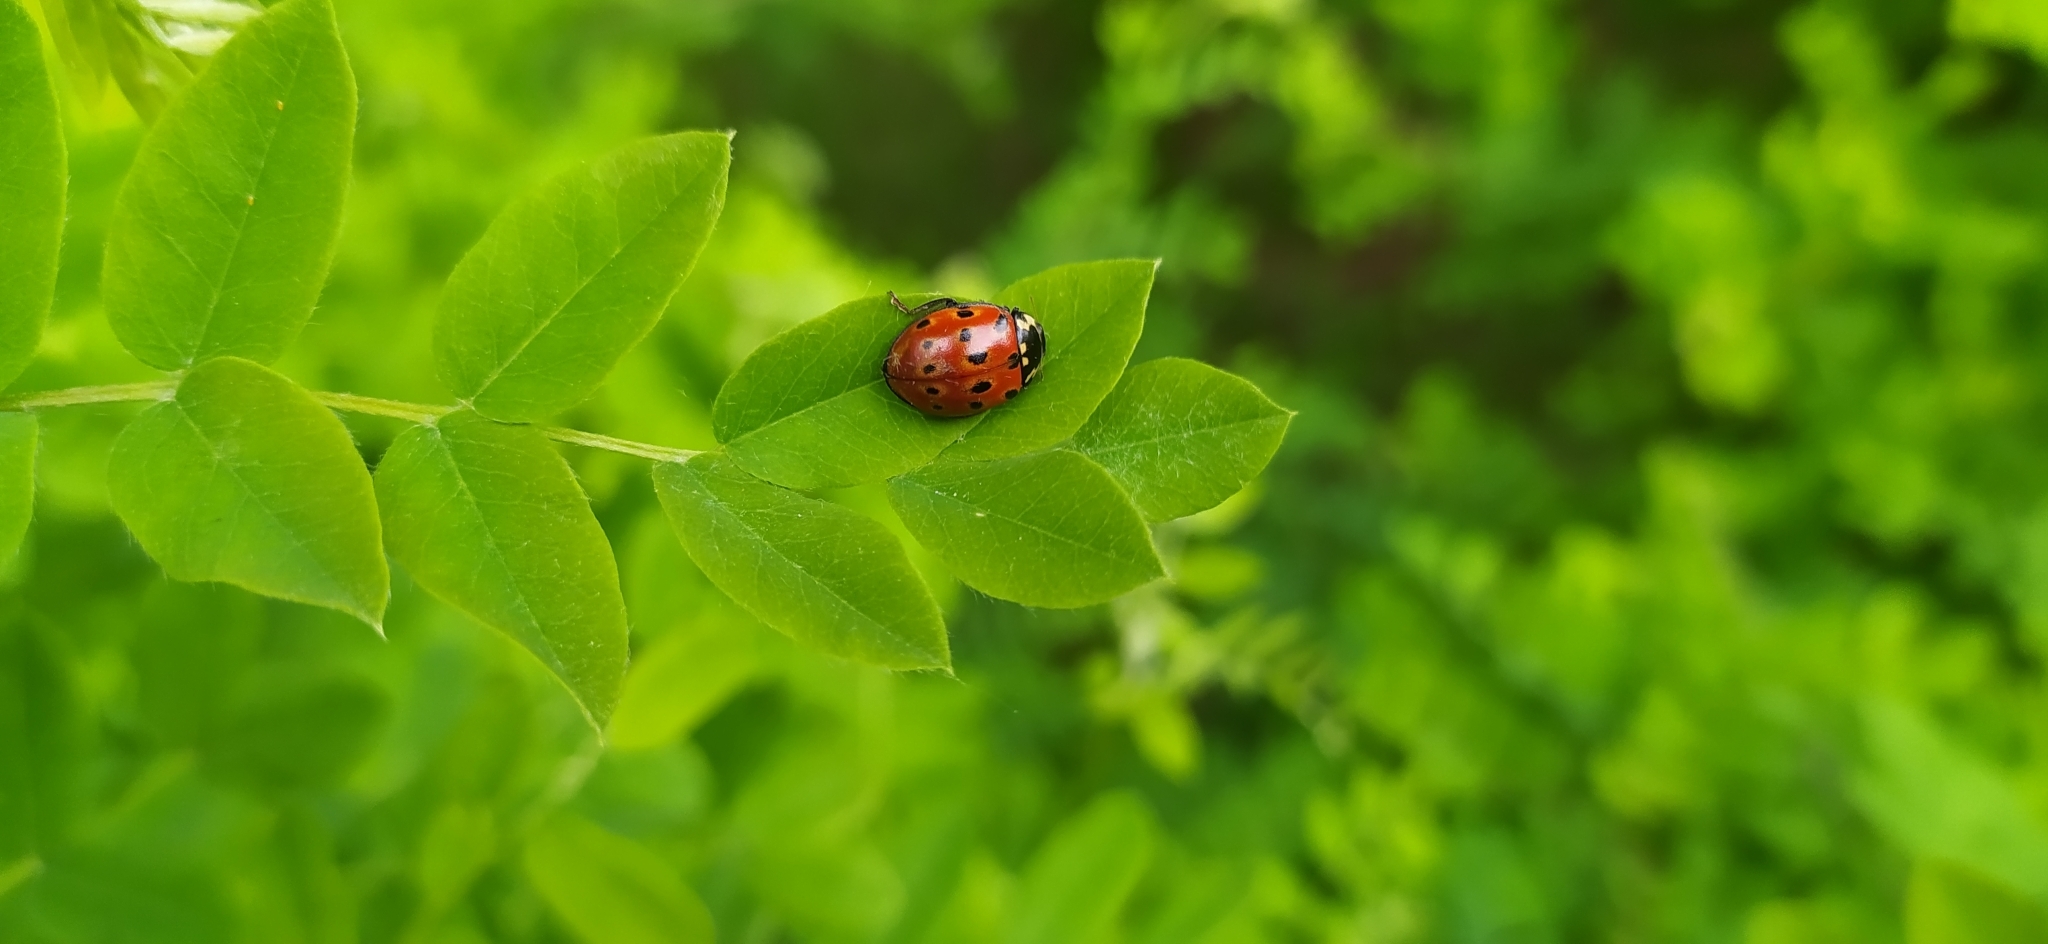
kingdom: Animalia
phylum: Arthropoda
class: Insecta
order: Coleoptera
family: Coccinellidae
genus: Anatis
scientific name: Anatis ocellata
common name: Eyed ladybird
